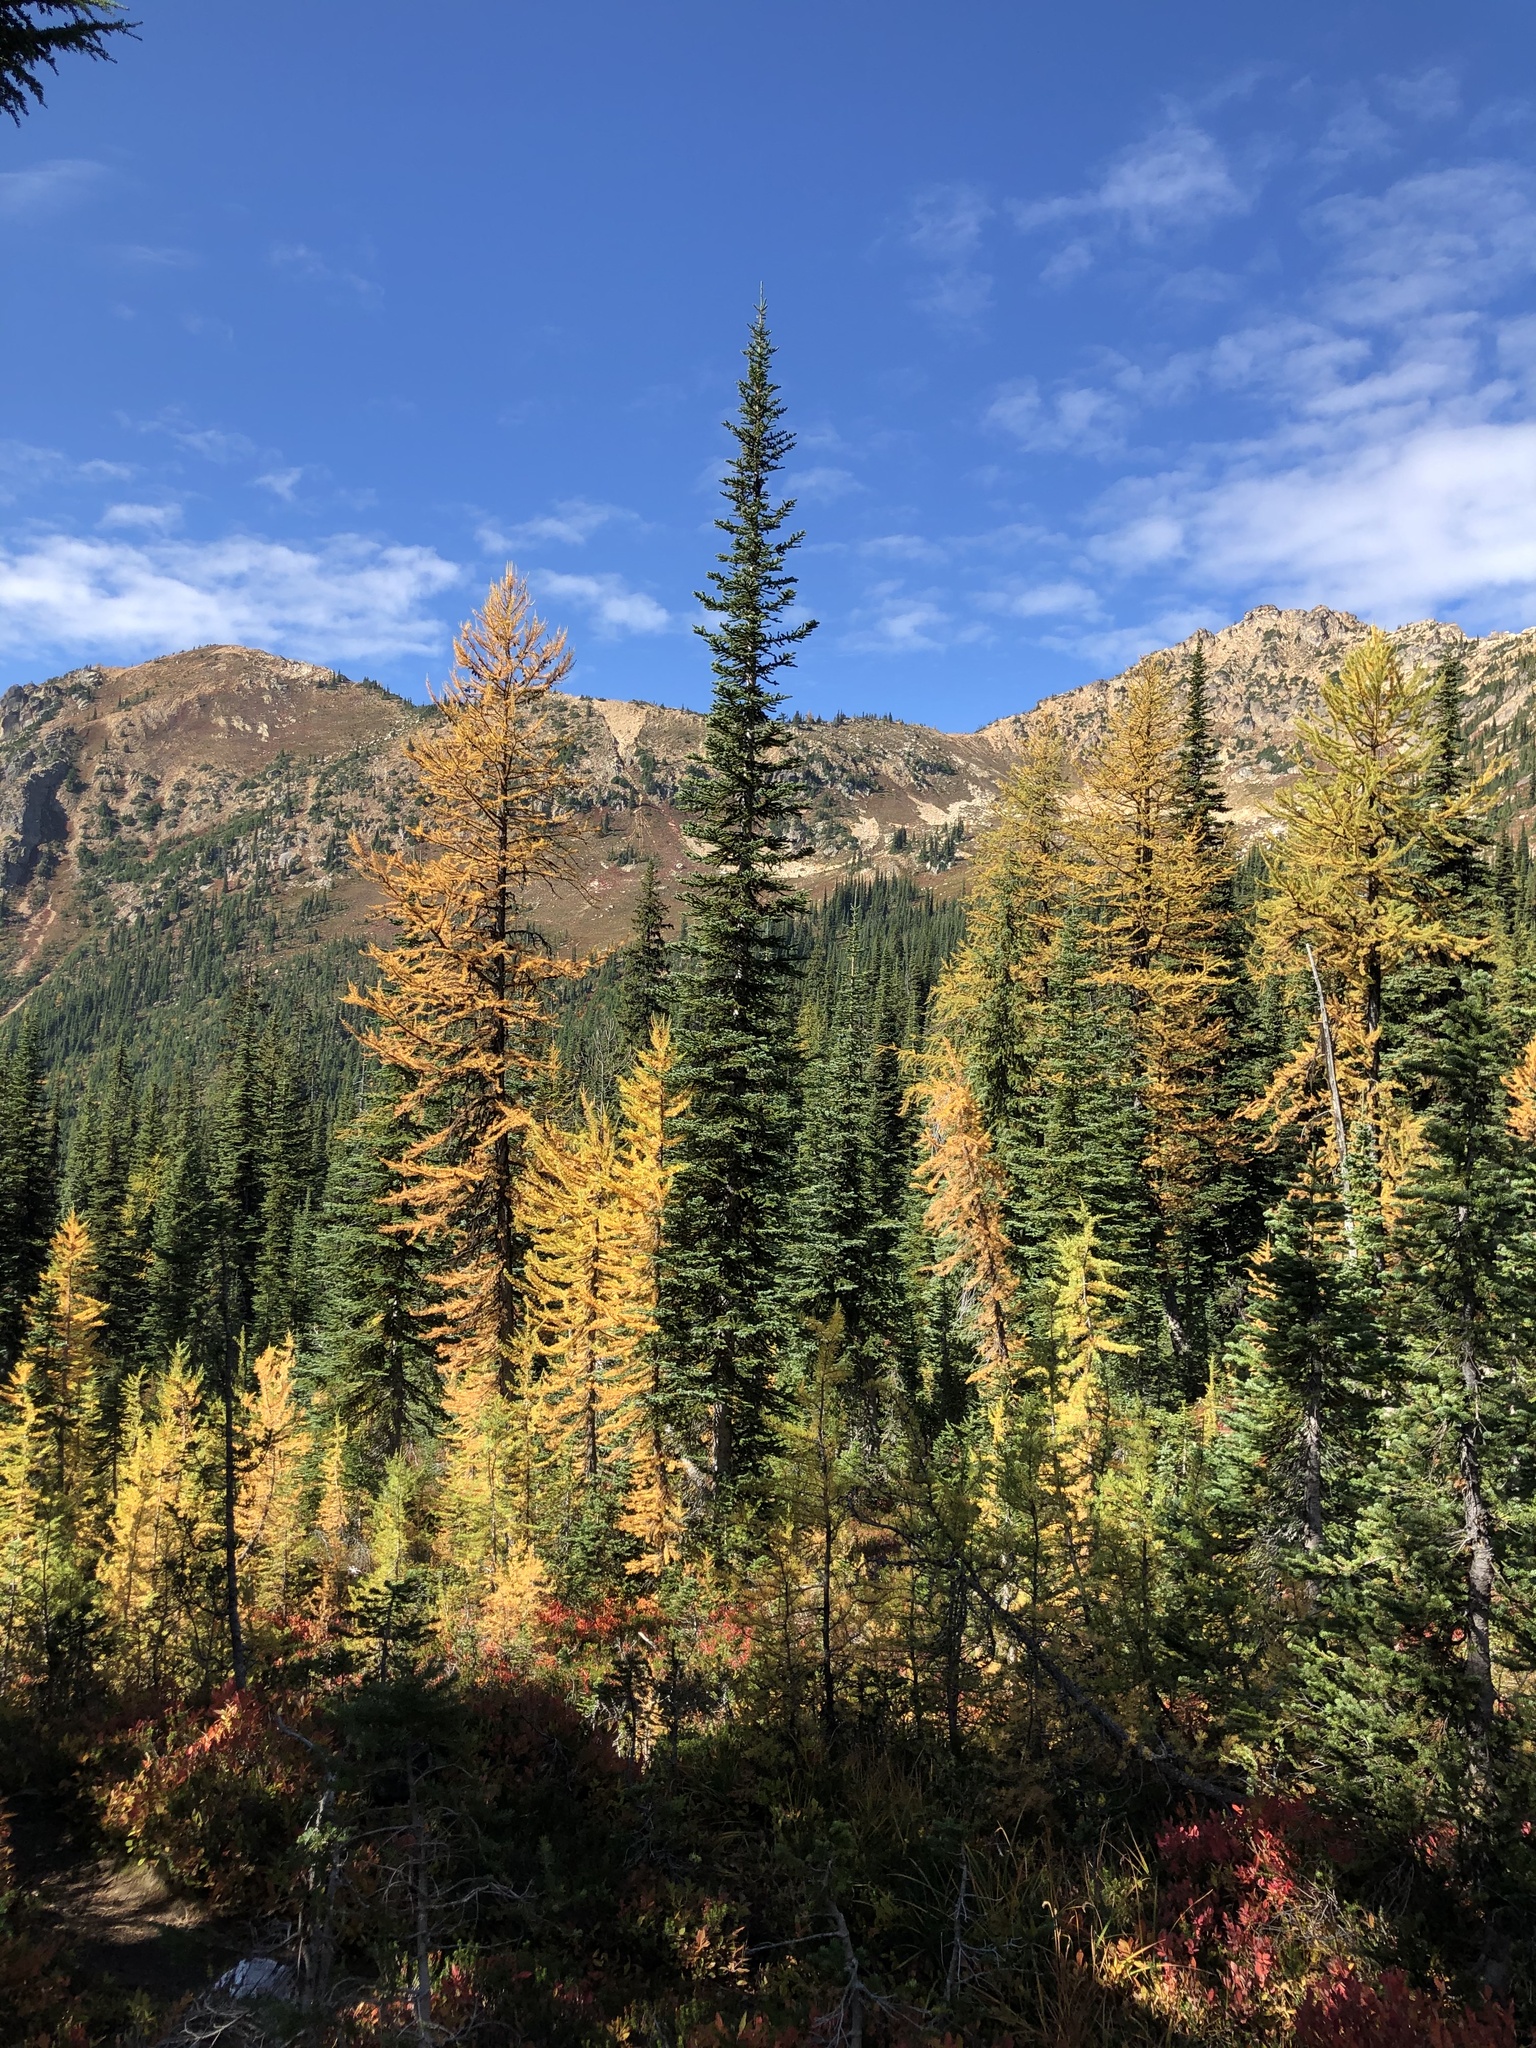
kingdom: Plantae
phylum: Tracheophyta
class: Pinopsida
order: Pinales
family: Pinaceae
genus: Larix
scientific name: Larix lyallii
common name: Alpine larch
